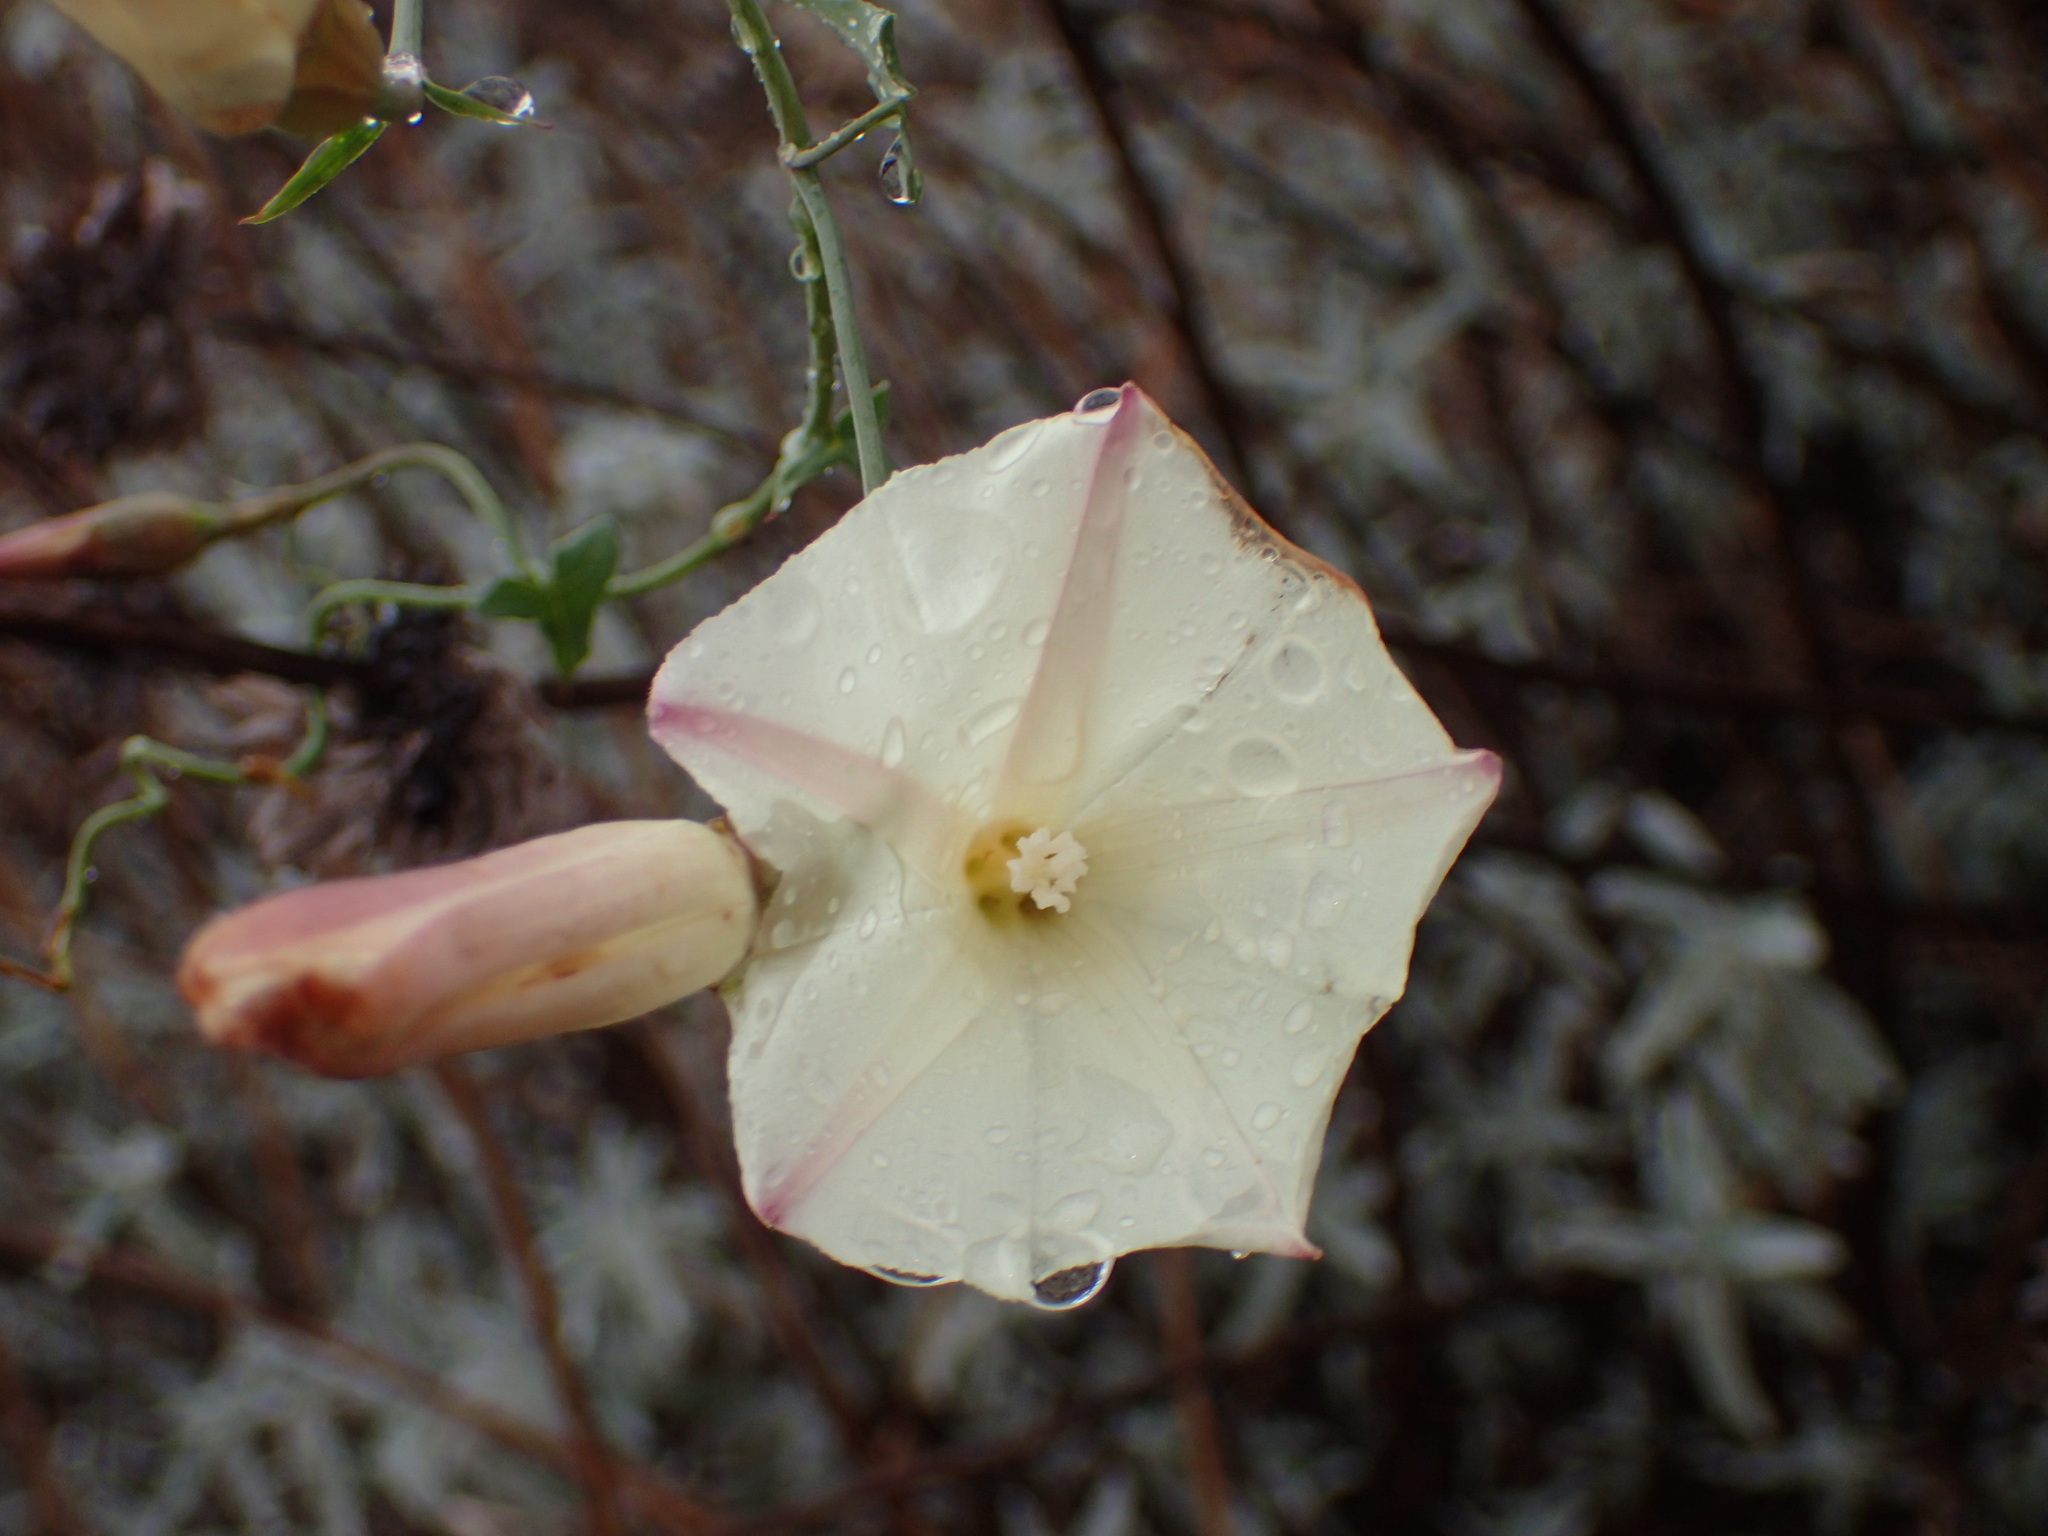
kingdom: Plantae
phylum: Tracheophyta
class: Magnoliopsida
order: Solanales
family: Convolvulaceae
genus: Calystegia
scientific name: Calystegia purpurata
